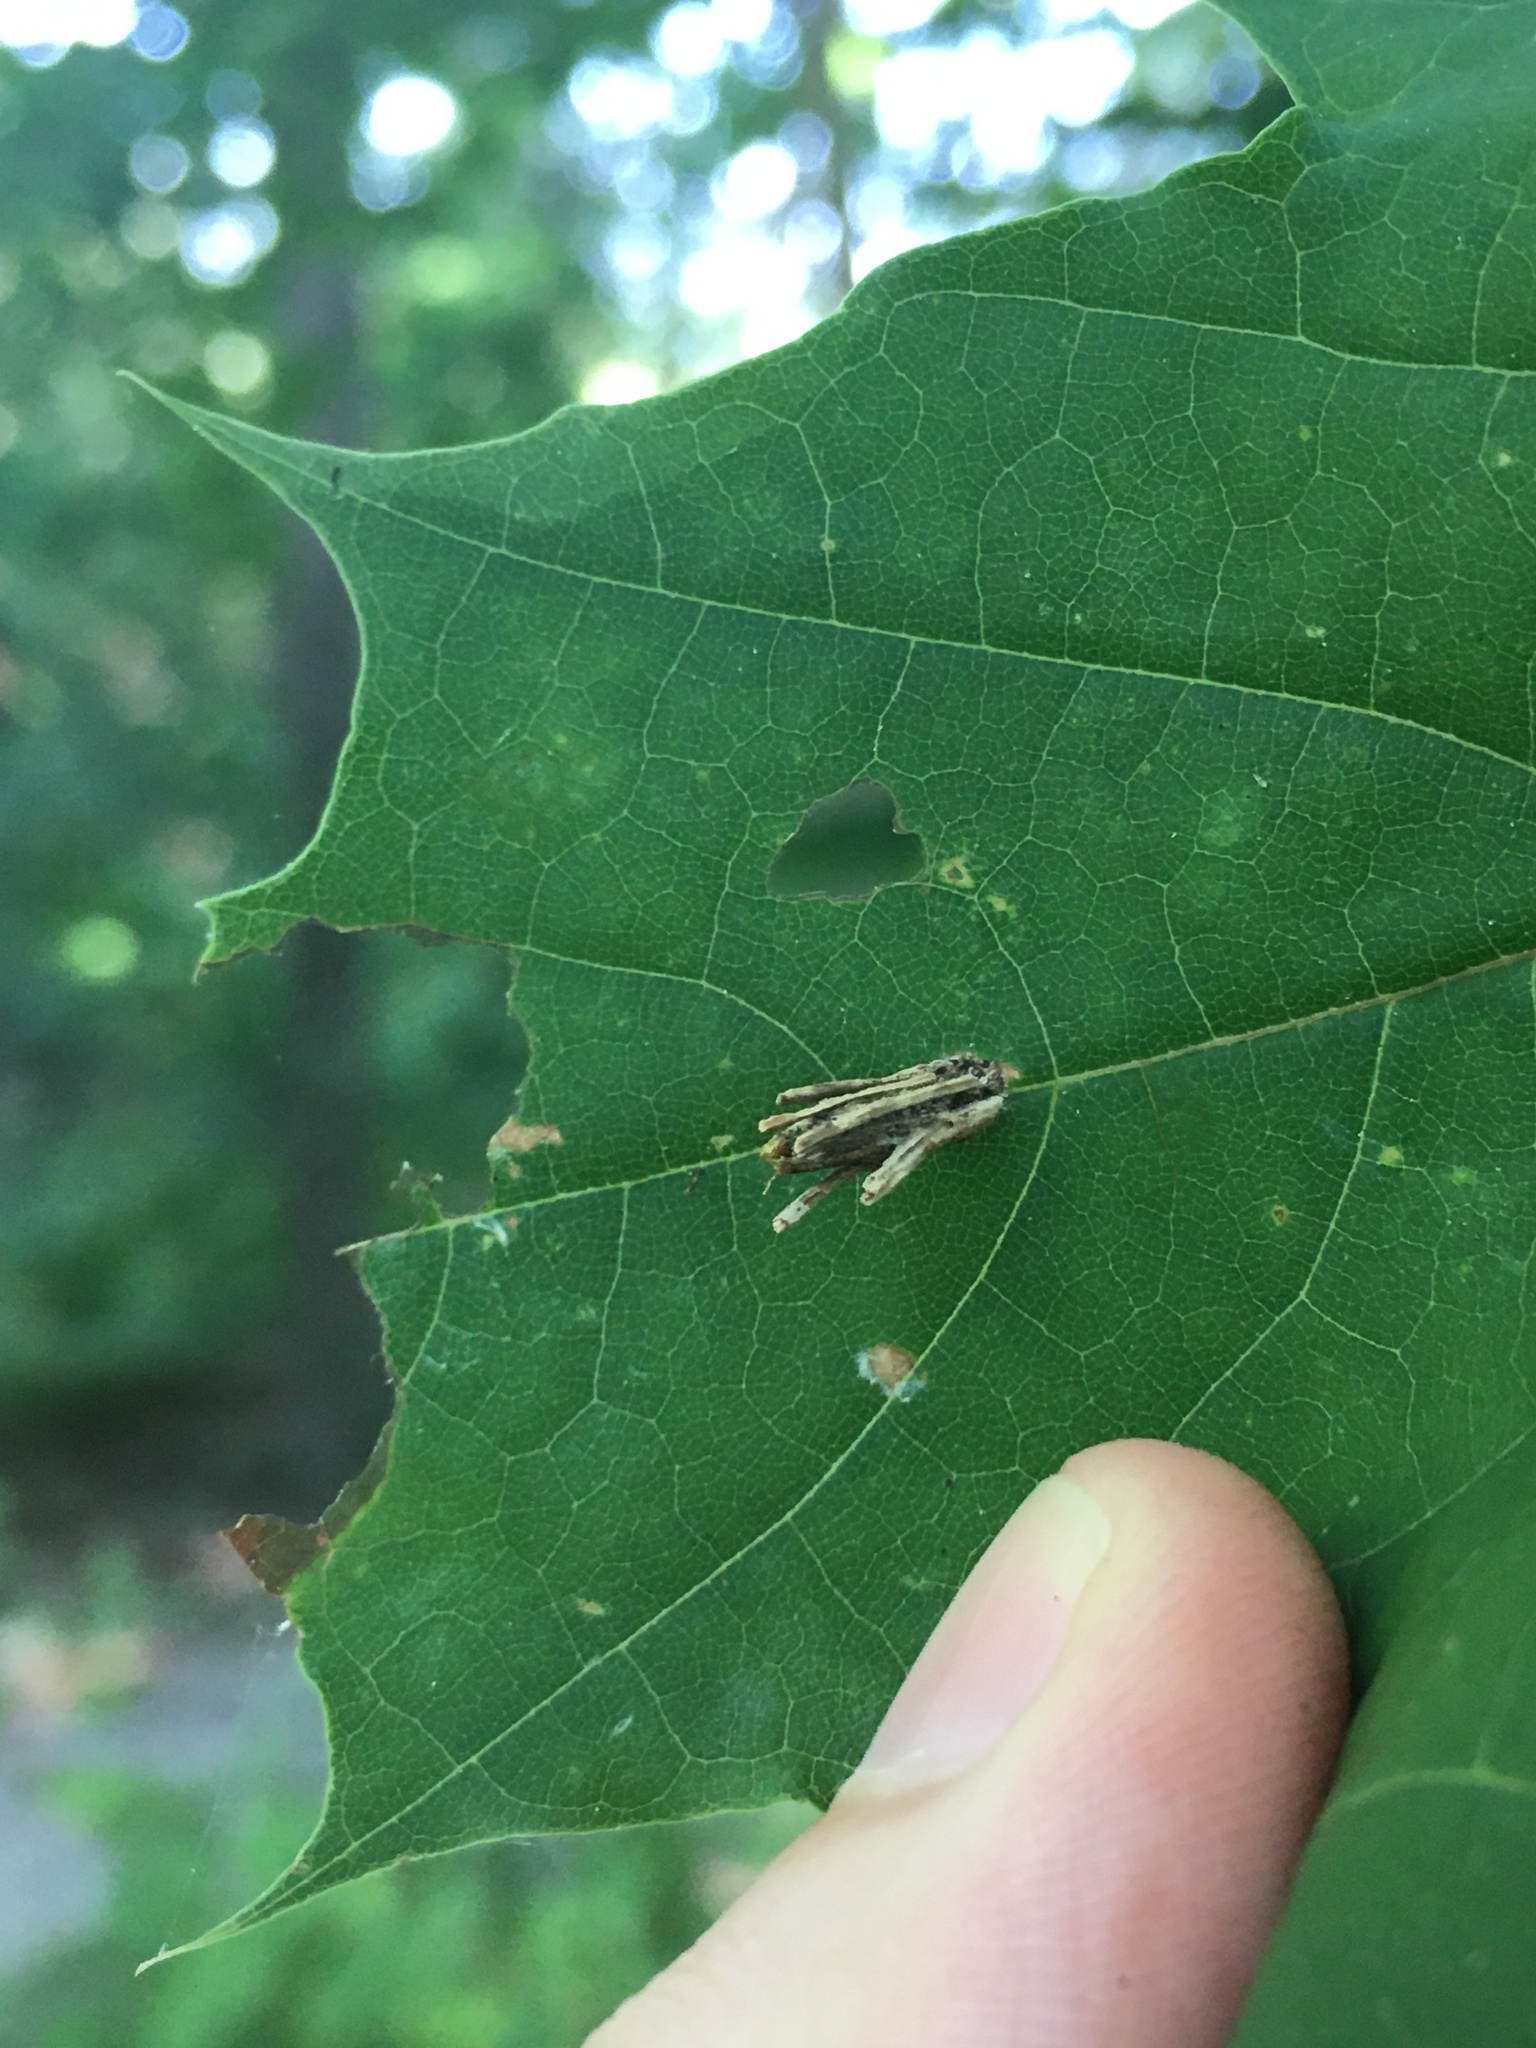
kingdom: Animalia
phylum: Arthropoda
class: Insecta
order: Lepidoptera
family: Psychidae
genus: Psyche
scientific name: Psyche casta
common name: Common sweep
